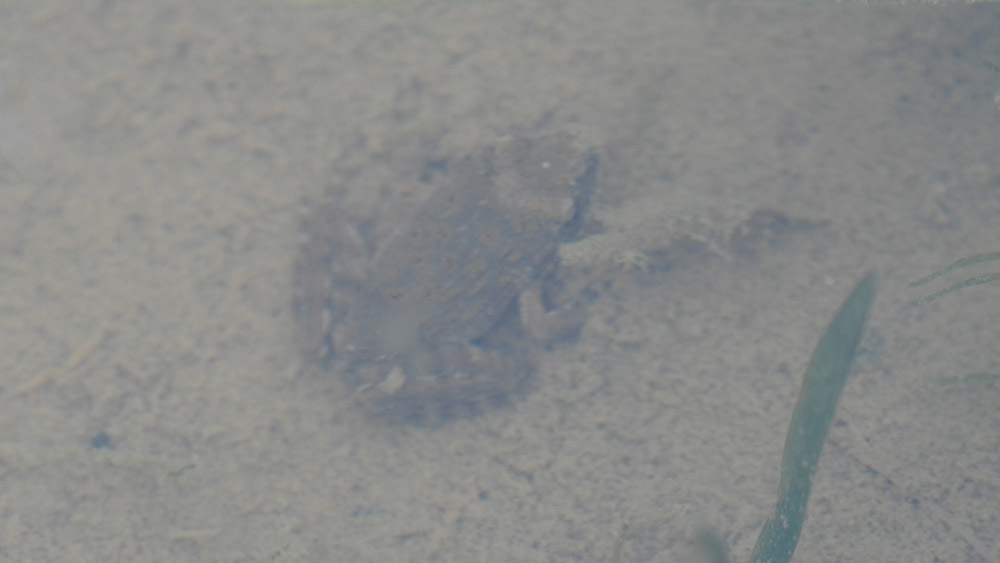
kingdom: Animalia
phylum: Chordata
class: Amphibia
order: Anura
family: Ranidae
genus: Glandirana
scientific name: Glandirana emeljanovi
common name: Northeast china rough-skinned frog
